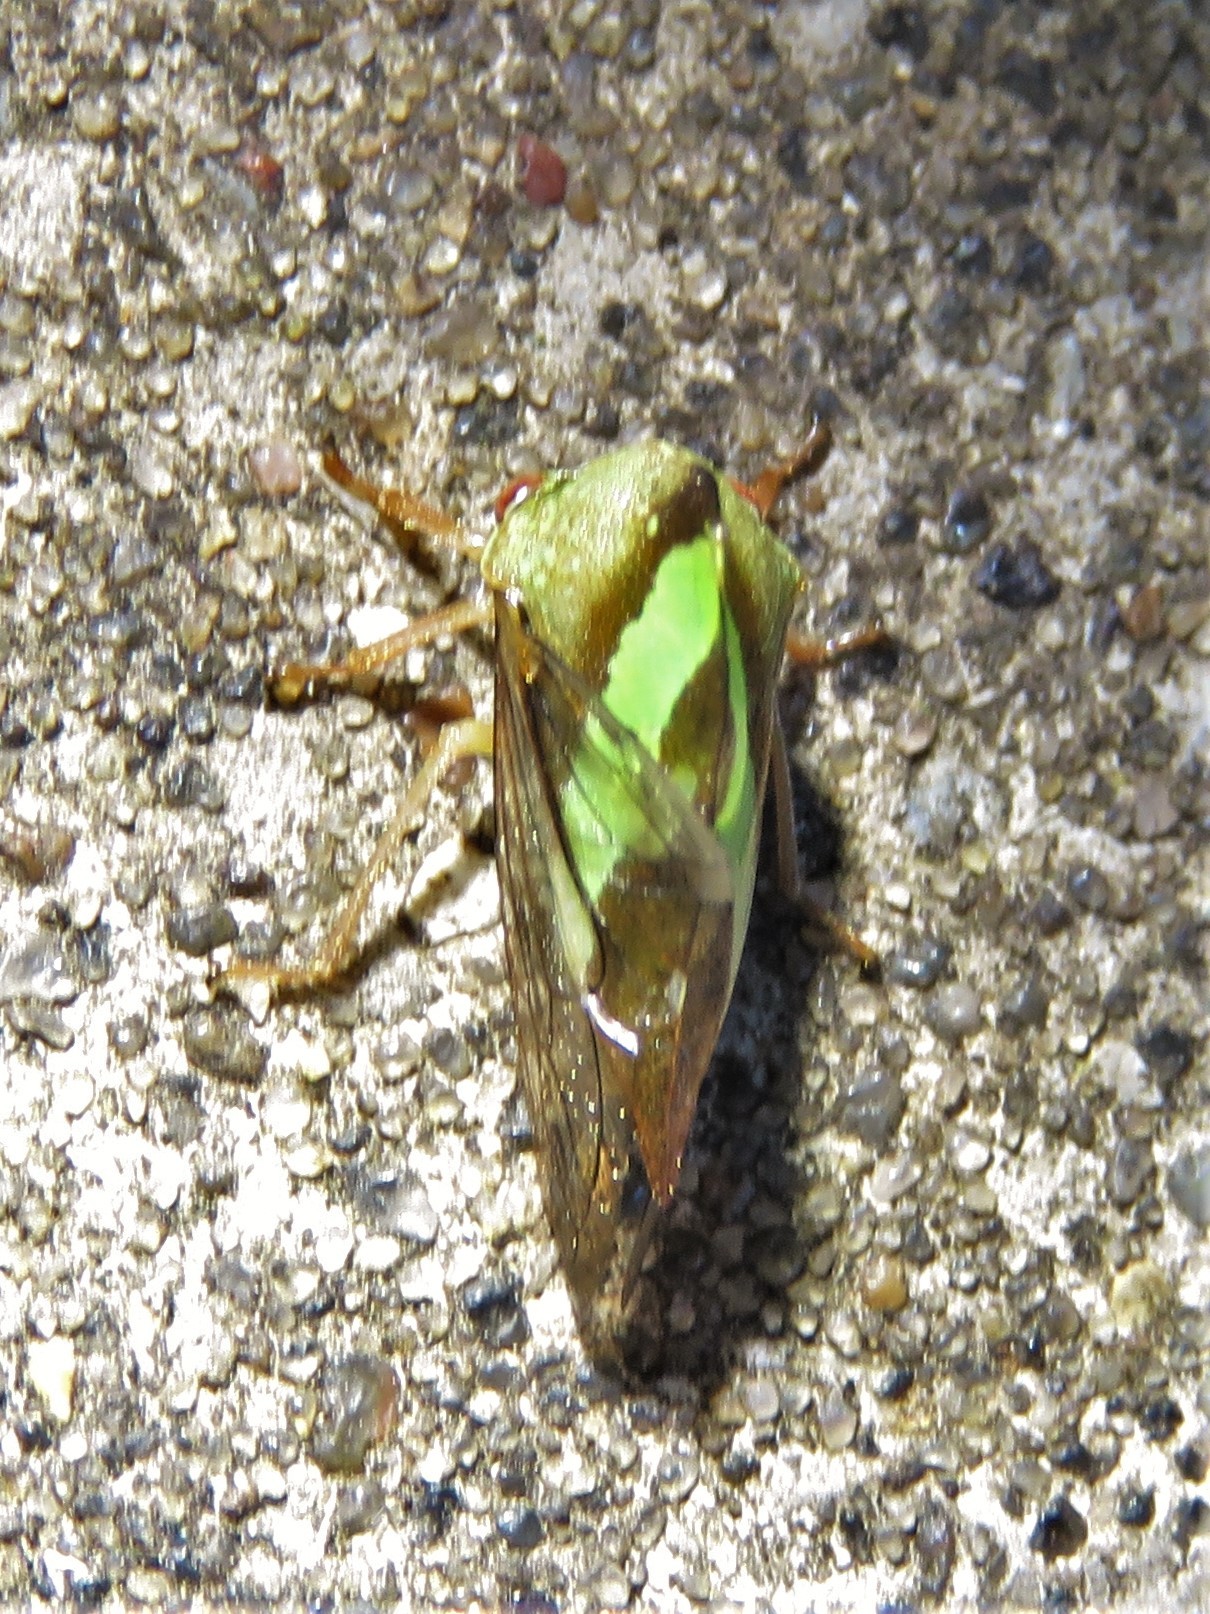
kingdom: Animalia
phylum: Arthropoda
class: Insecta
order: Hemiptera
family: Membracidae
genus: Smilia
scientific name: Smilia camelus
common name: Camel treehopper
